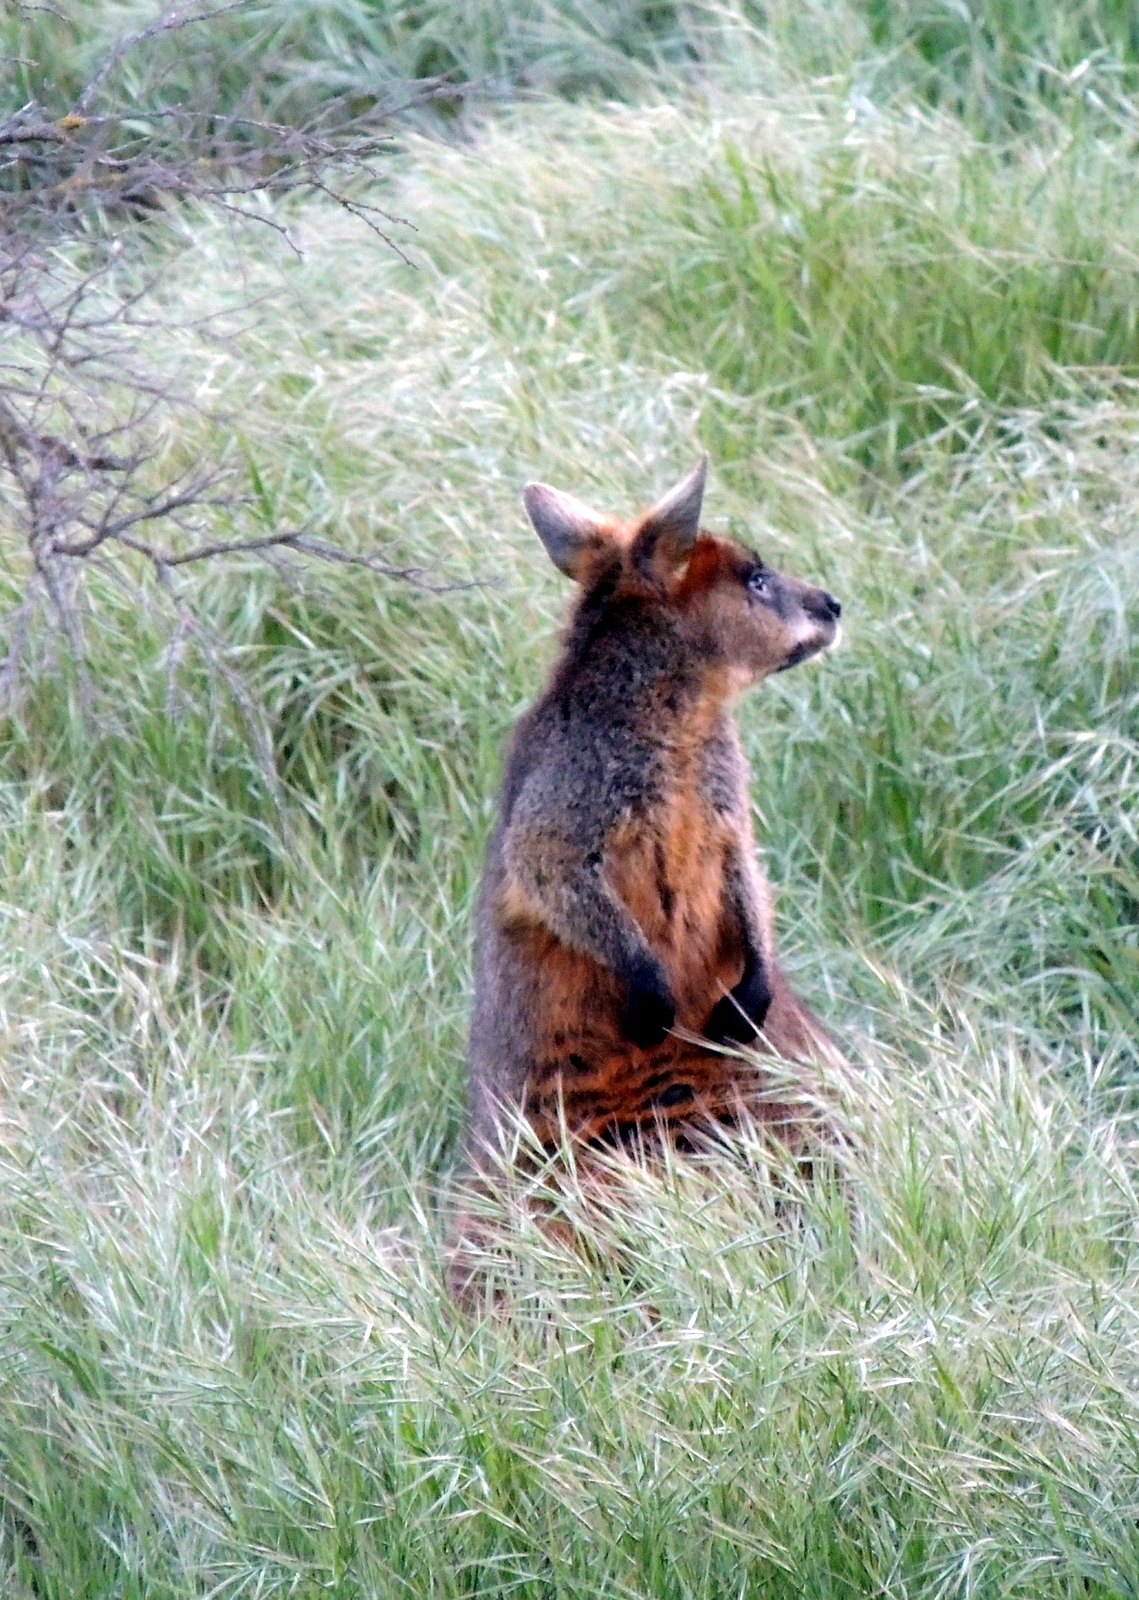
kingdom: Animalia
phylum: Chordata
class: Mammalia
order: Diprotodontia
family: Macropodidae
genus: Wallabia
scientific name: Wallabia bicolor
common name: Swamp wallaby
